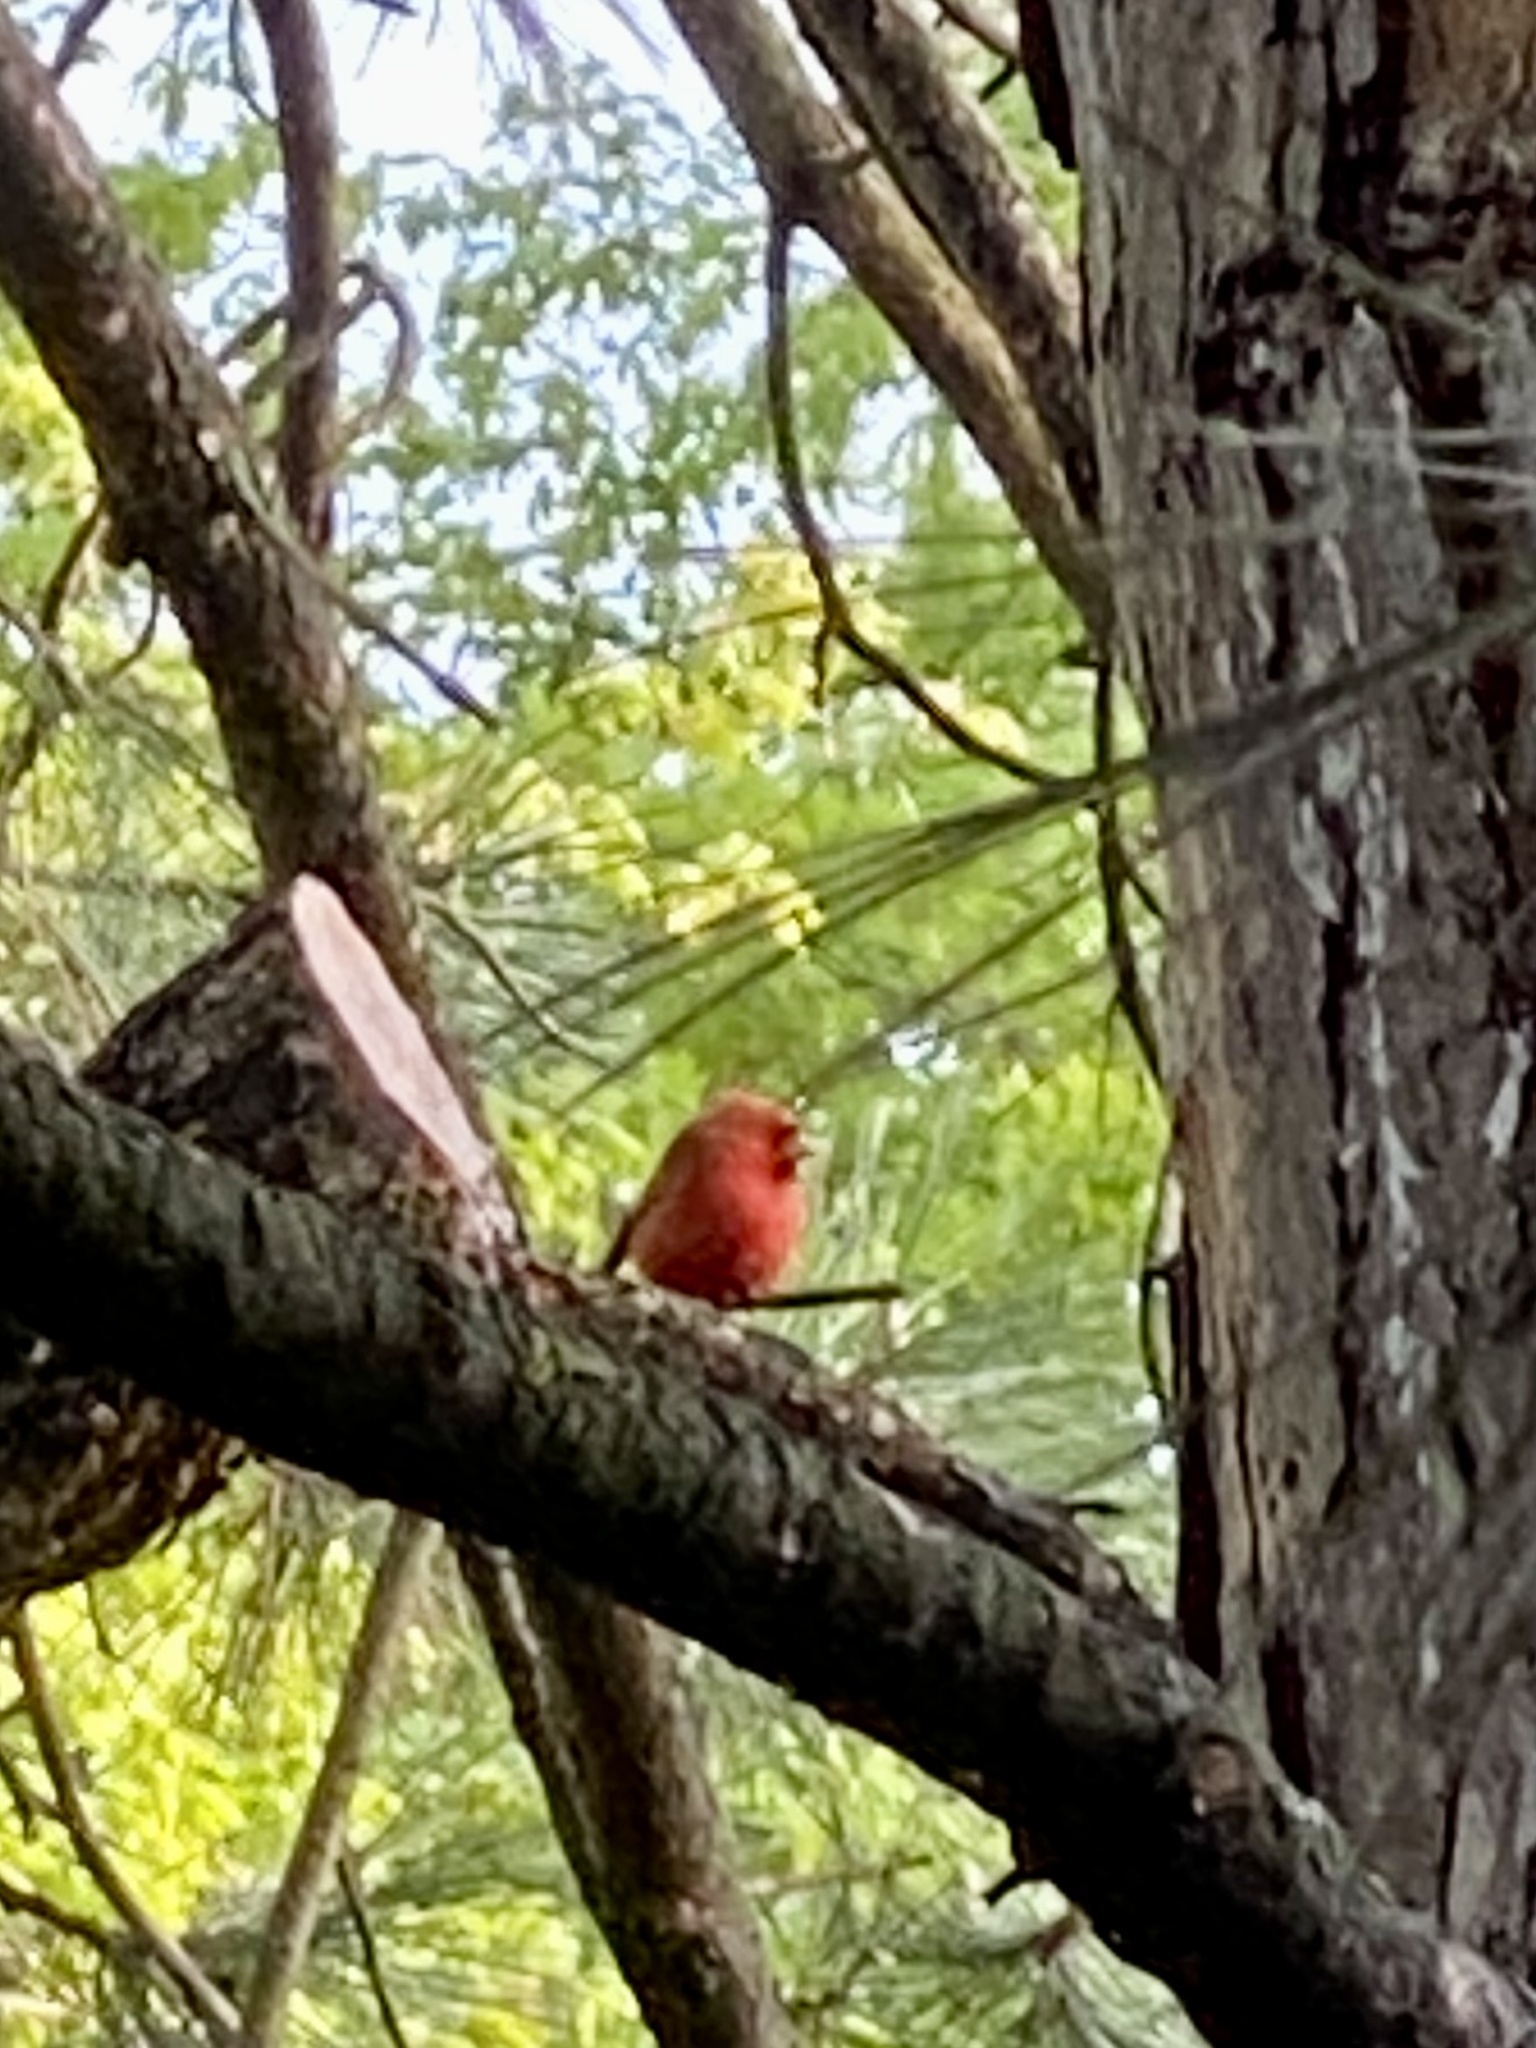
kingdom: Animalia
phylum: Chordata
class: Aves
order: Passeriformes
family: Cardinalidae
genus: Cardinalis
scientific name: Cardinalis cardinalis
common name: Northern cardinal
